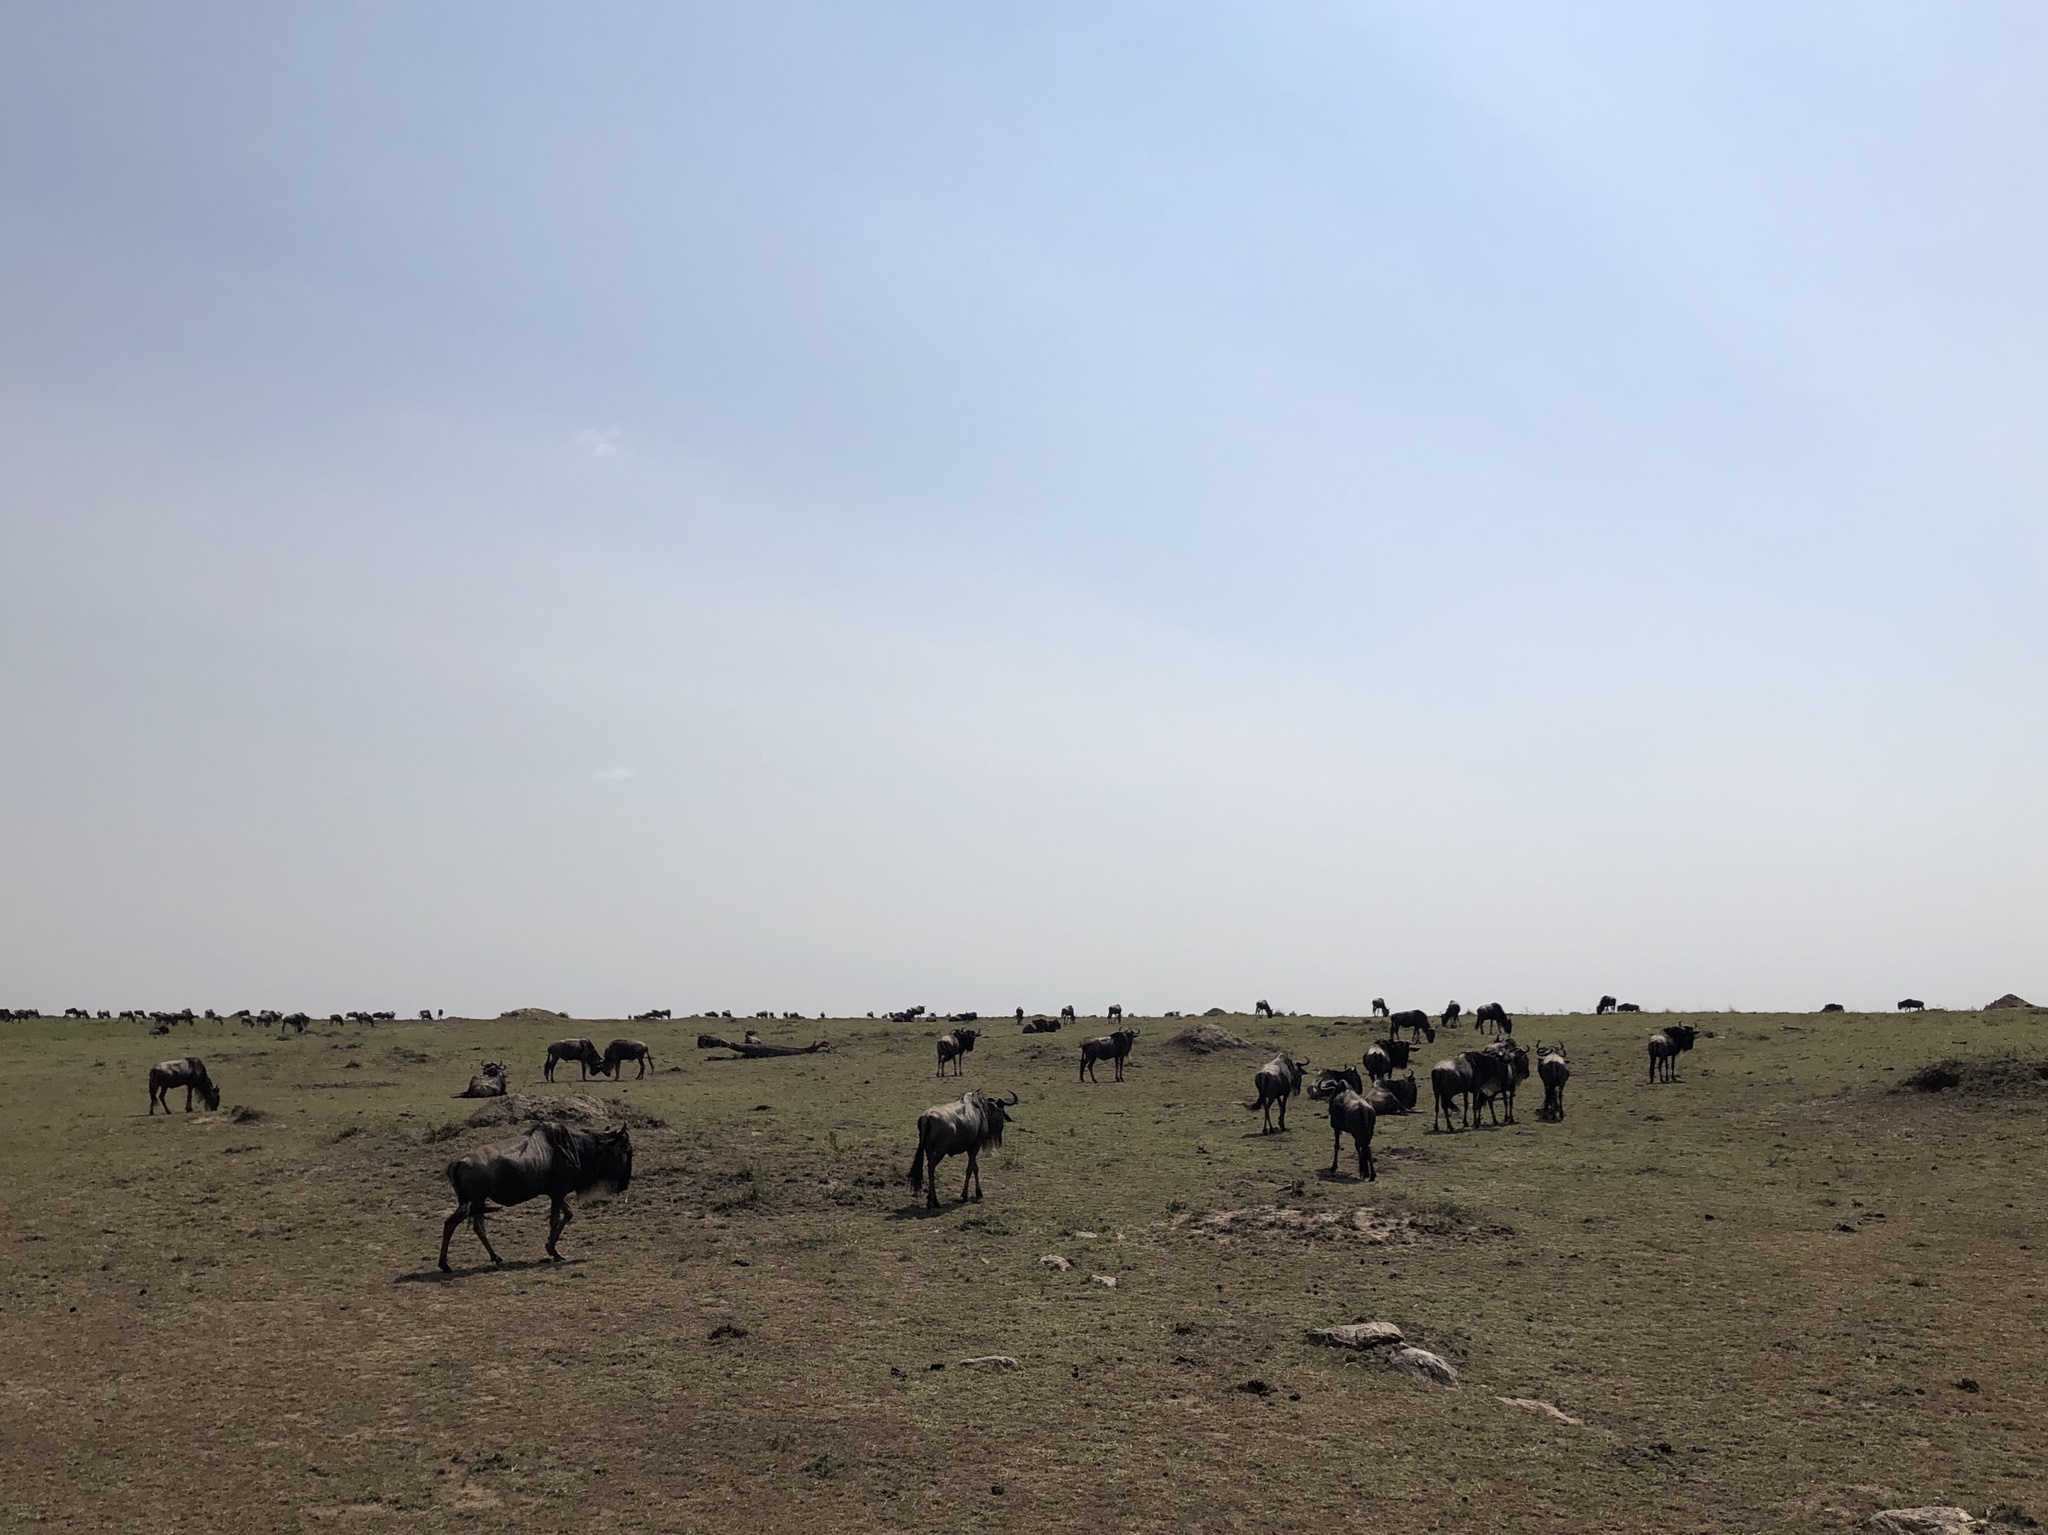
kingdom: Animalia
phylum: Chordata
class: Mammalia
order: Artiodactyla
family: Bovidae
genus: Connochaetes
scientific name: Connochaetes taurinus
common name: Blue wildebeest
